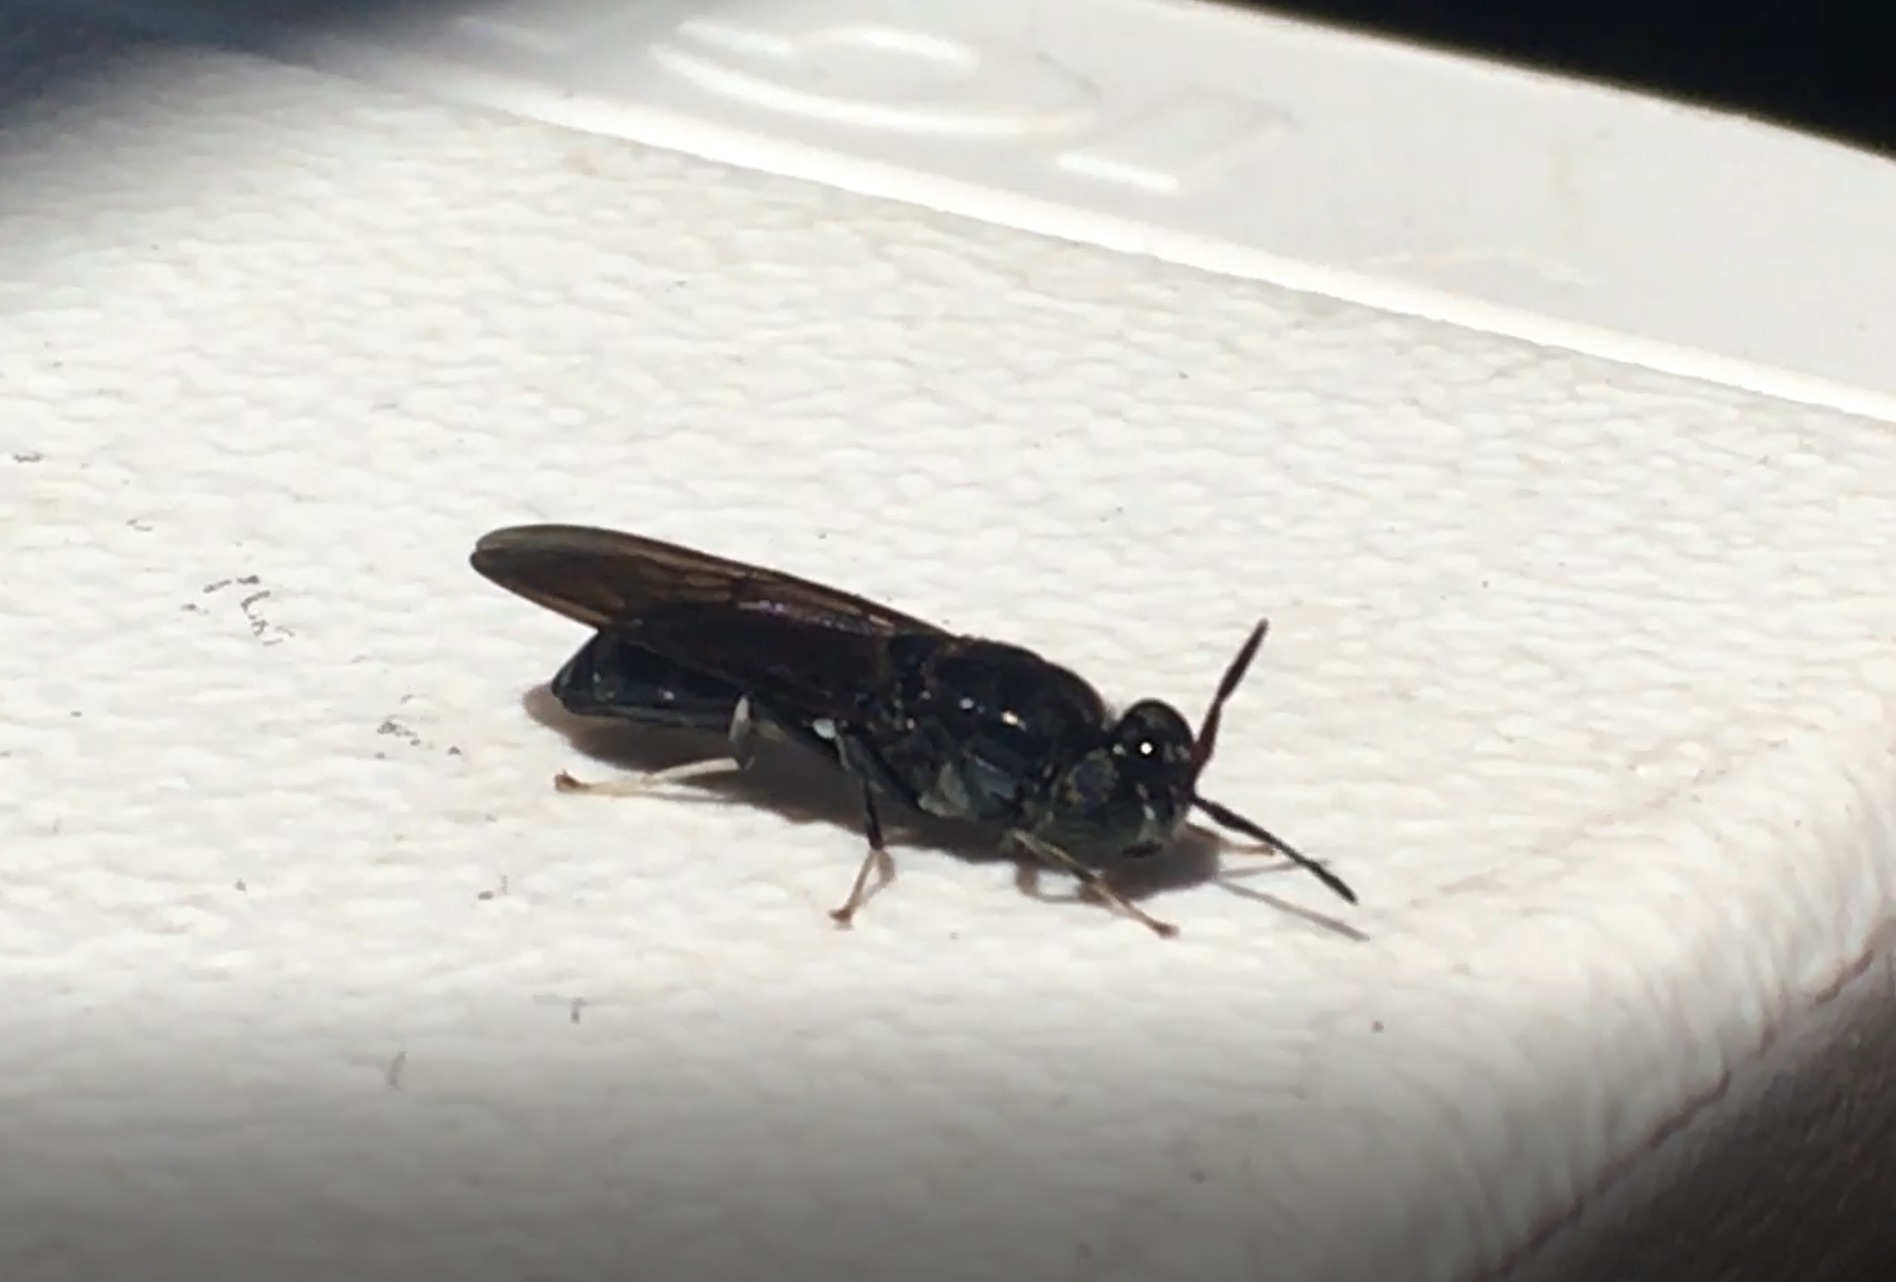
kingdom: Animalia
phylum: Arthropoda
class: Insecta
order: Diptera
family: Stratiomyidae
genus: Hermetia
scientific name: Hermetia illucens
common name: Black soldier fly
